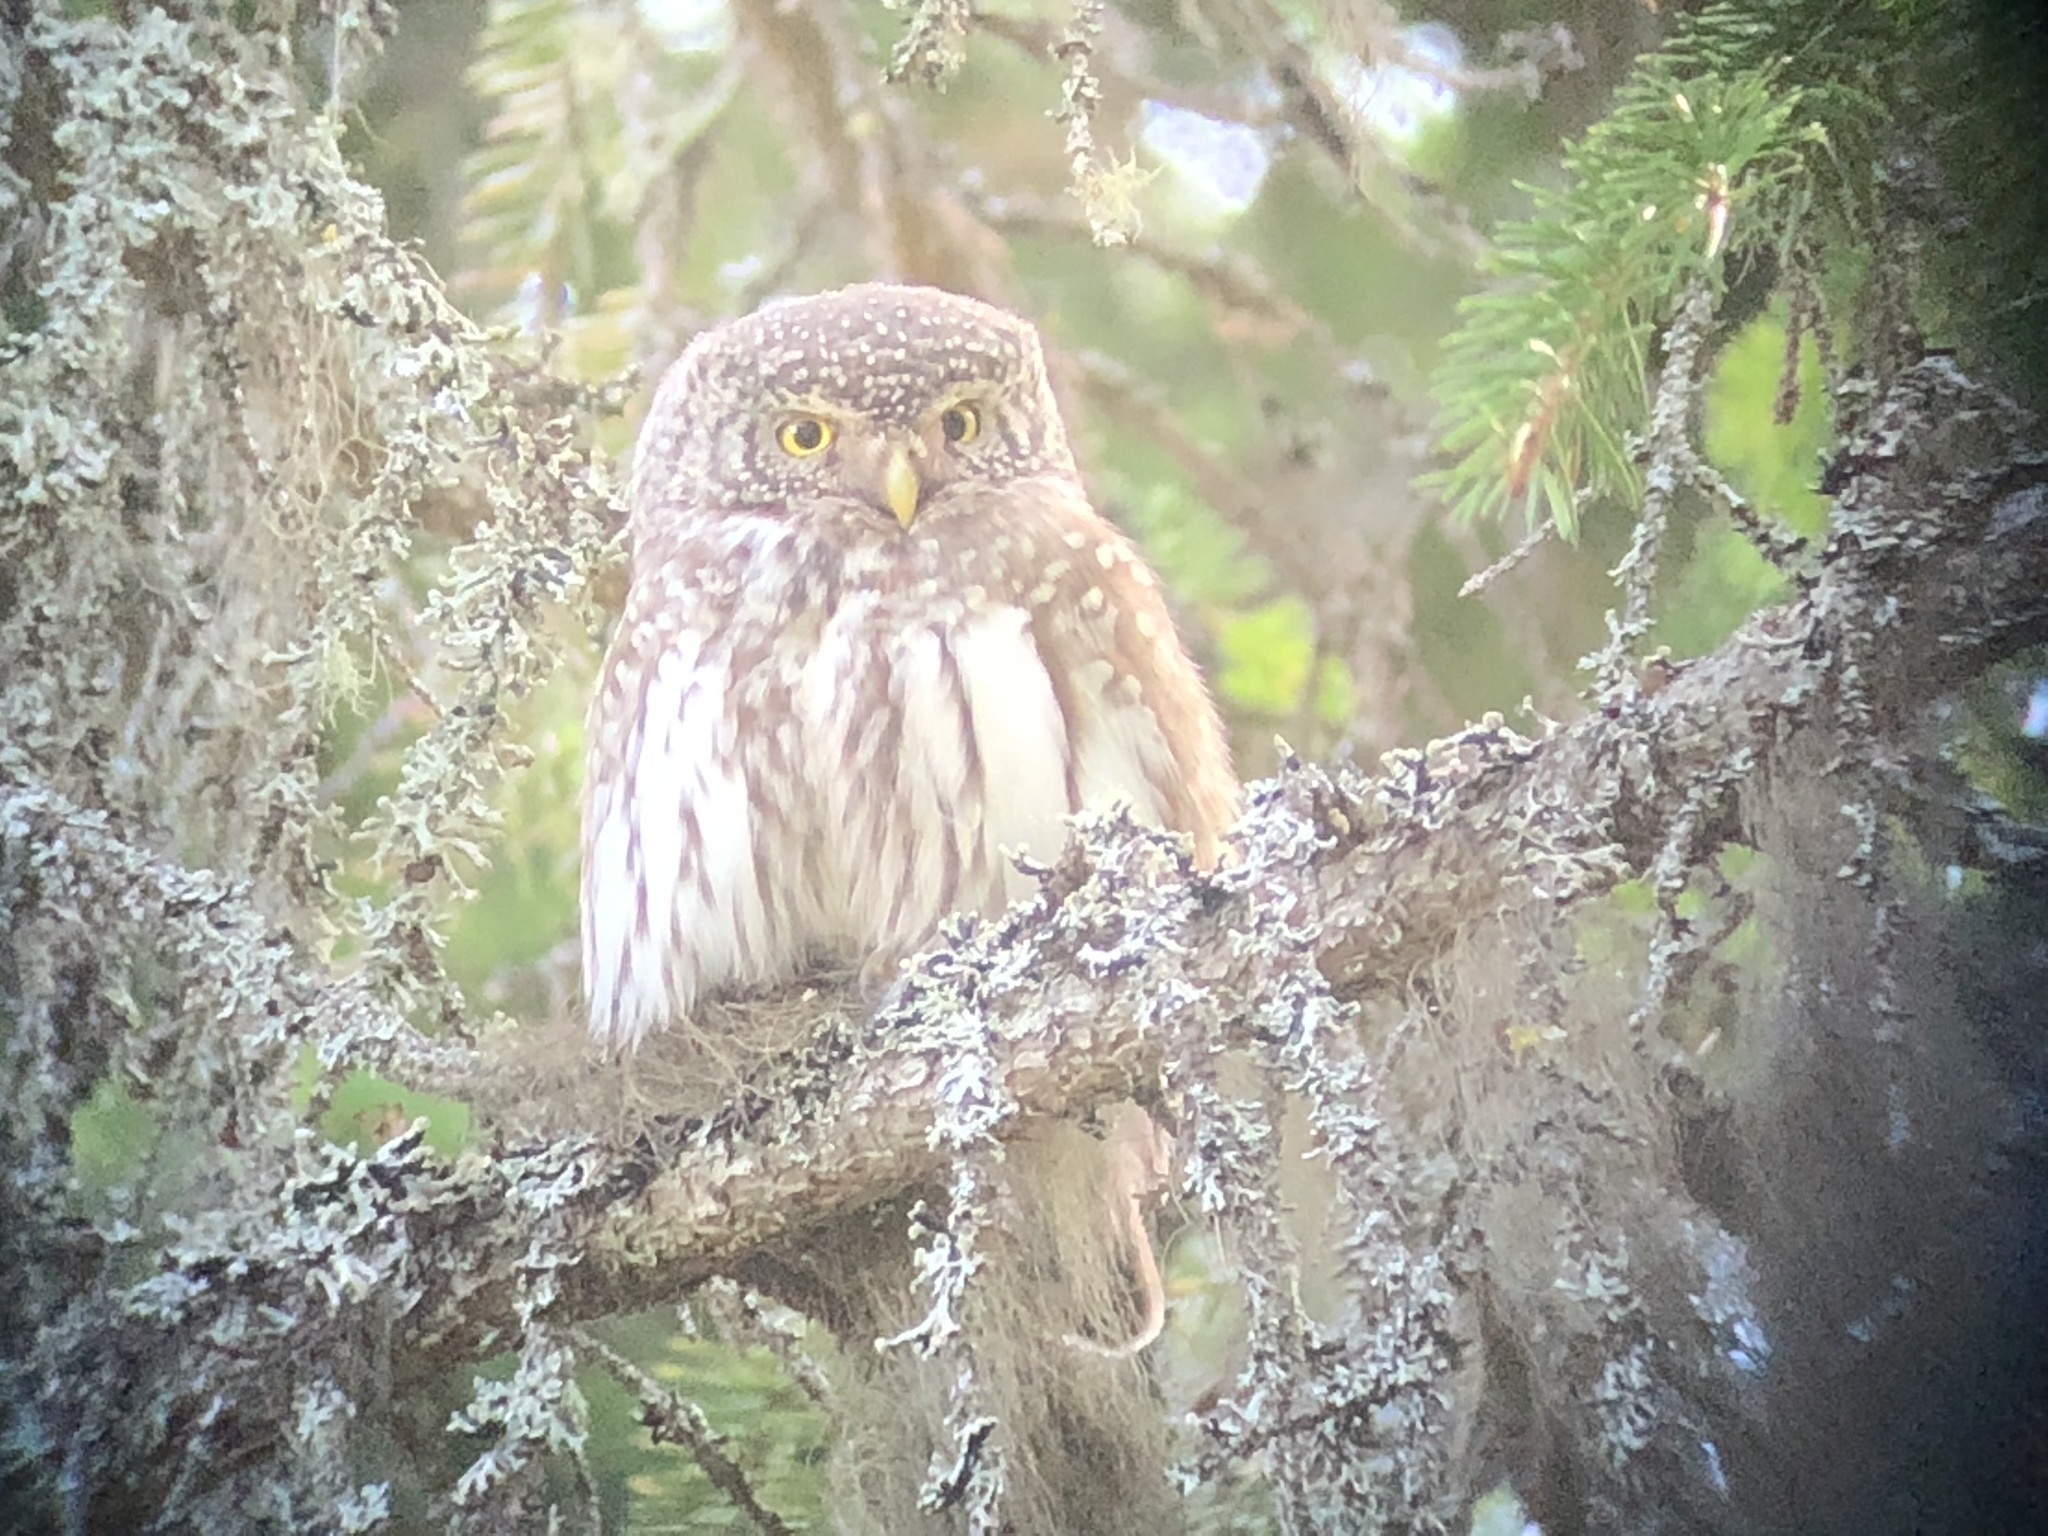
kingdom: Animalia
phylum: Chordata
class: Aves
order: Strigiformes
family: Strigidae
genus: Glaucidium
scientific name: Glaucidium passerinum
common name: Eurasian pygmy owl
